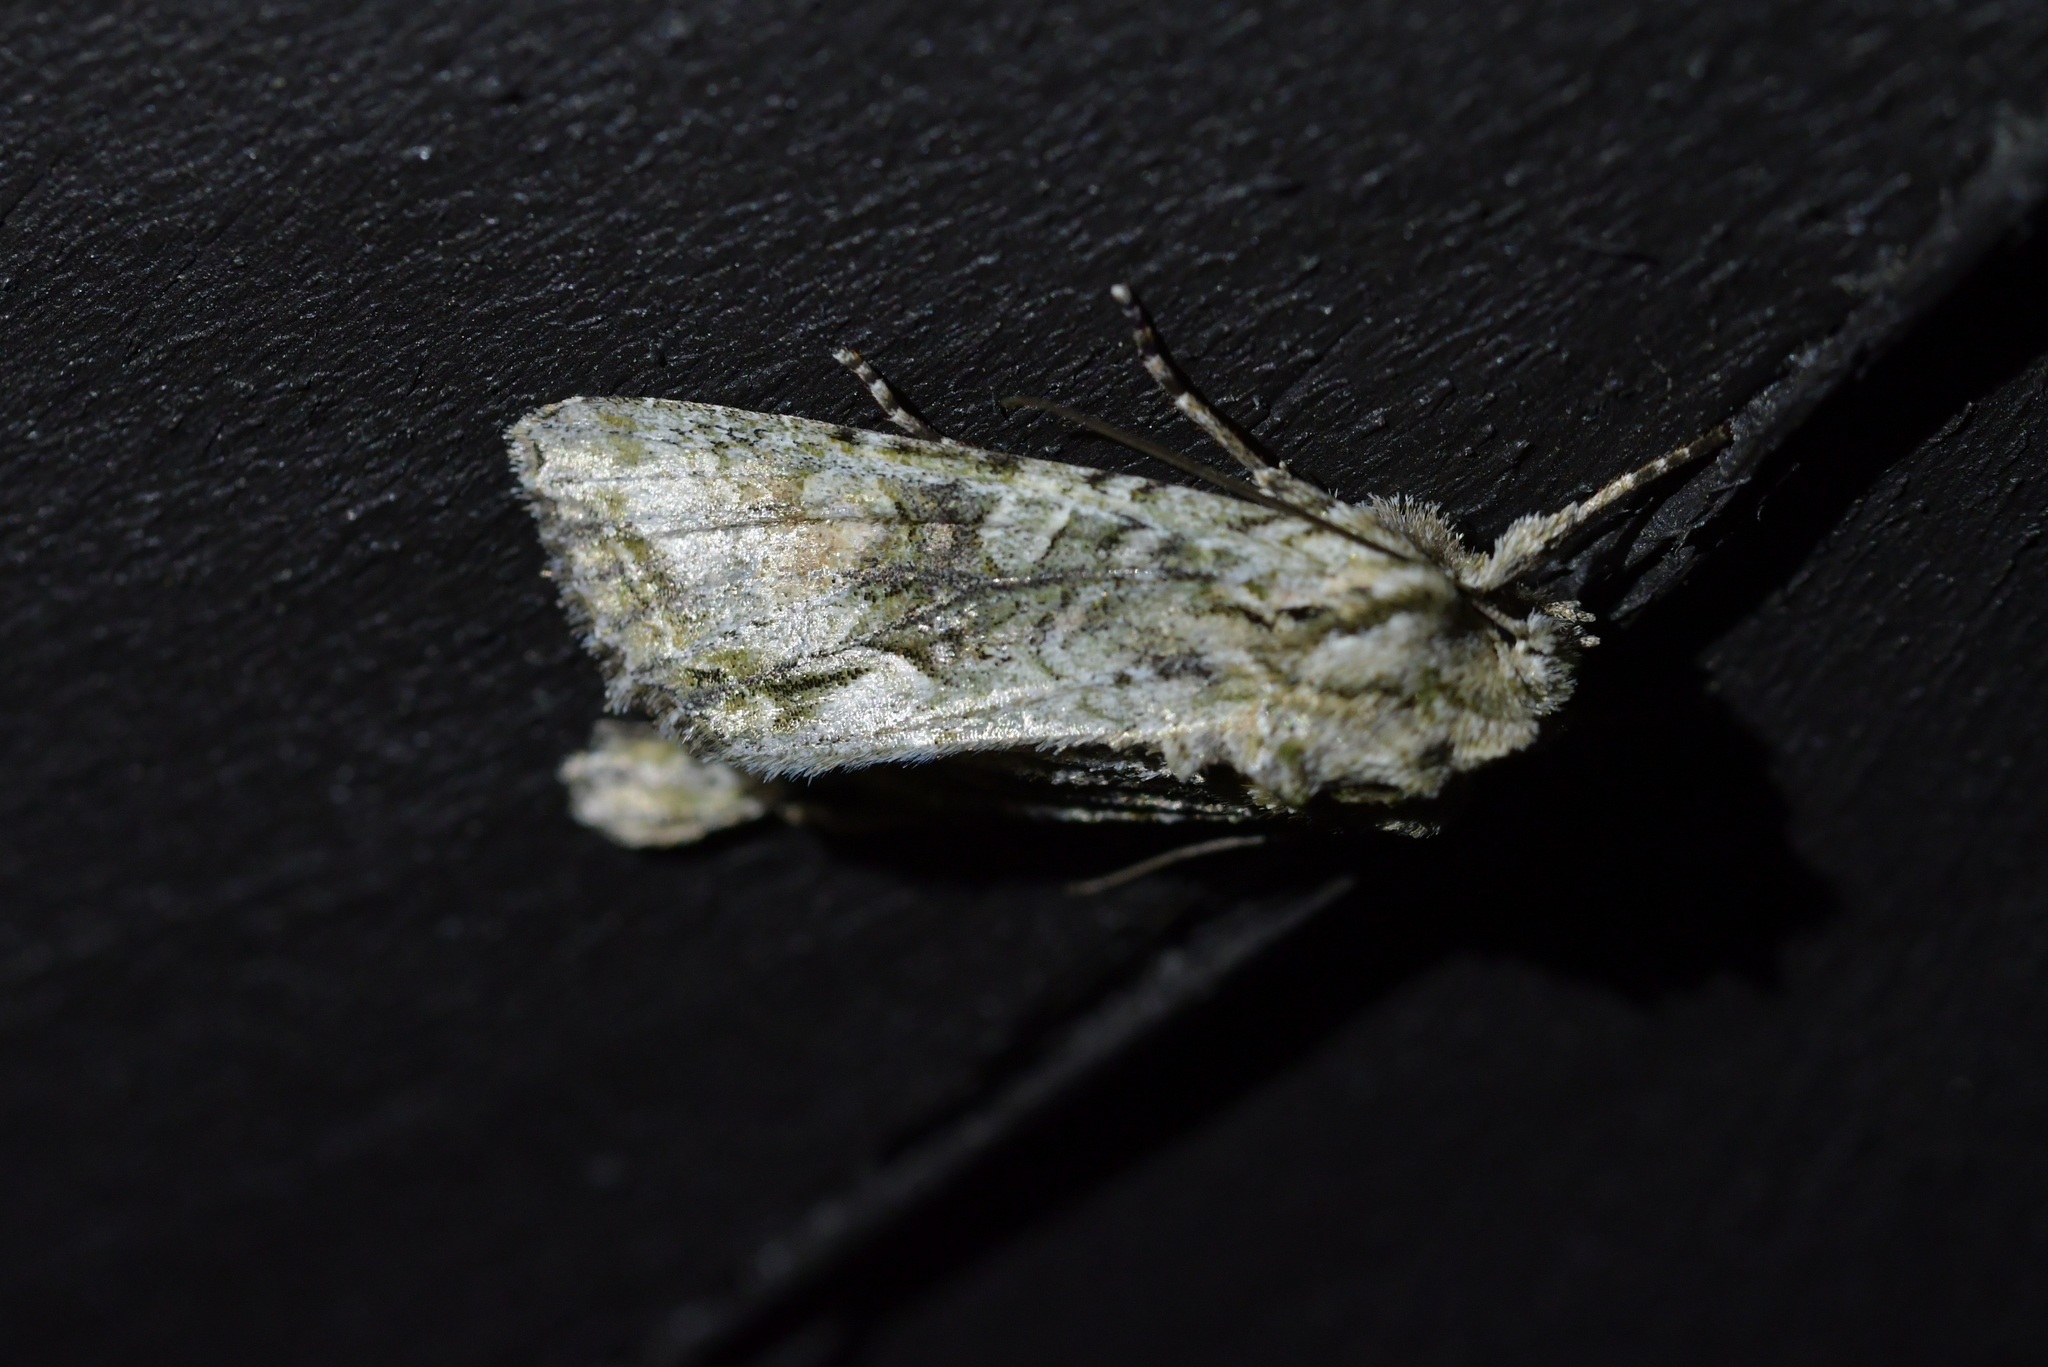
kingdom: Animalia
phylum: Arthropoda
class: Insecta
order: Lepidoptera
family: Noctuidae
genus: Ichneutica
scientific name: Ichneutica mutans
